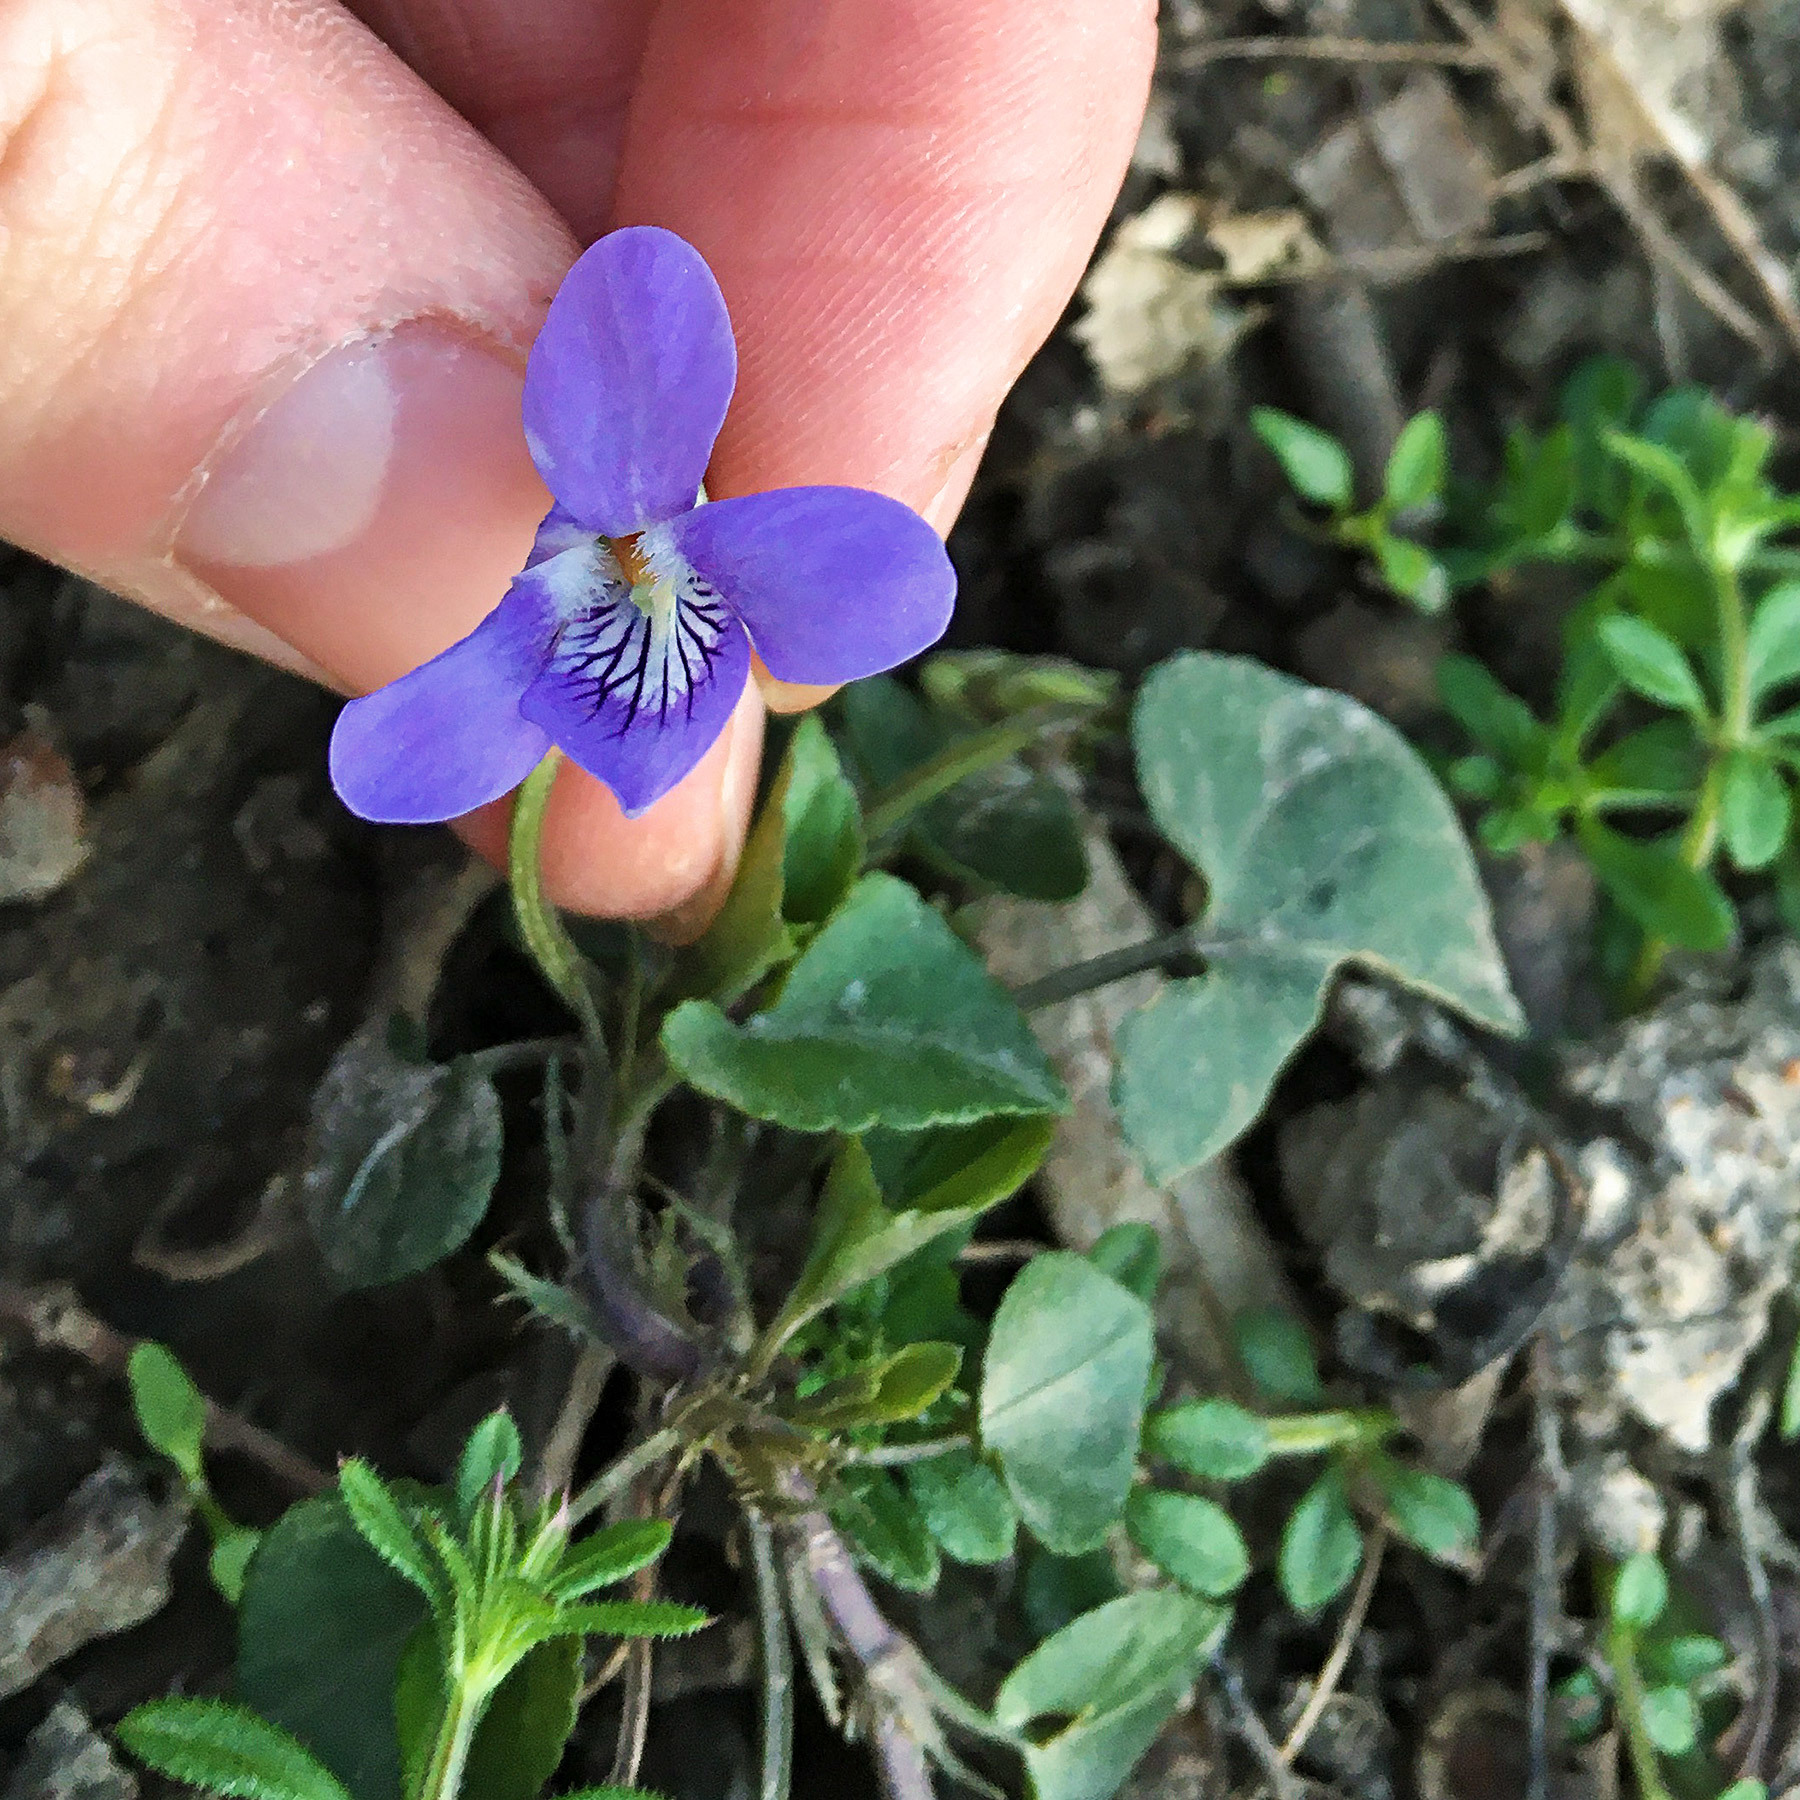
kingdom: Plantae
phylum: Tracheophyta
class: Magnoliopsida
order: Malpighiales
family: Violaceae
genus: Viola
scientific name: Viola riviniana
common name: Common dog-violet
